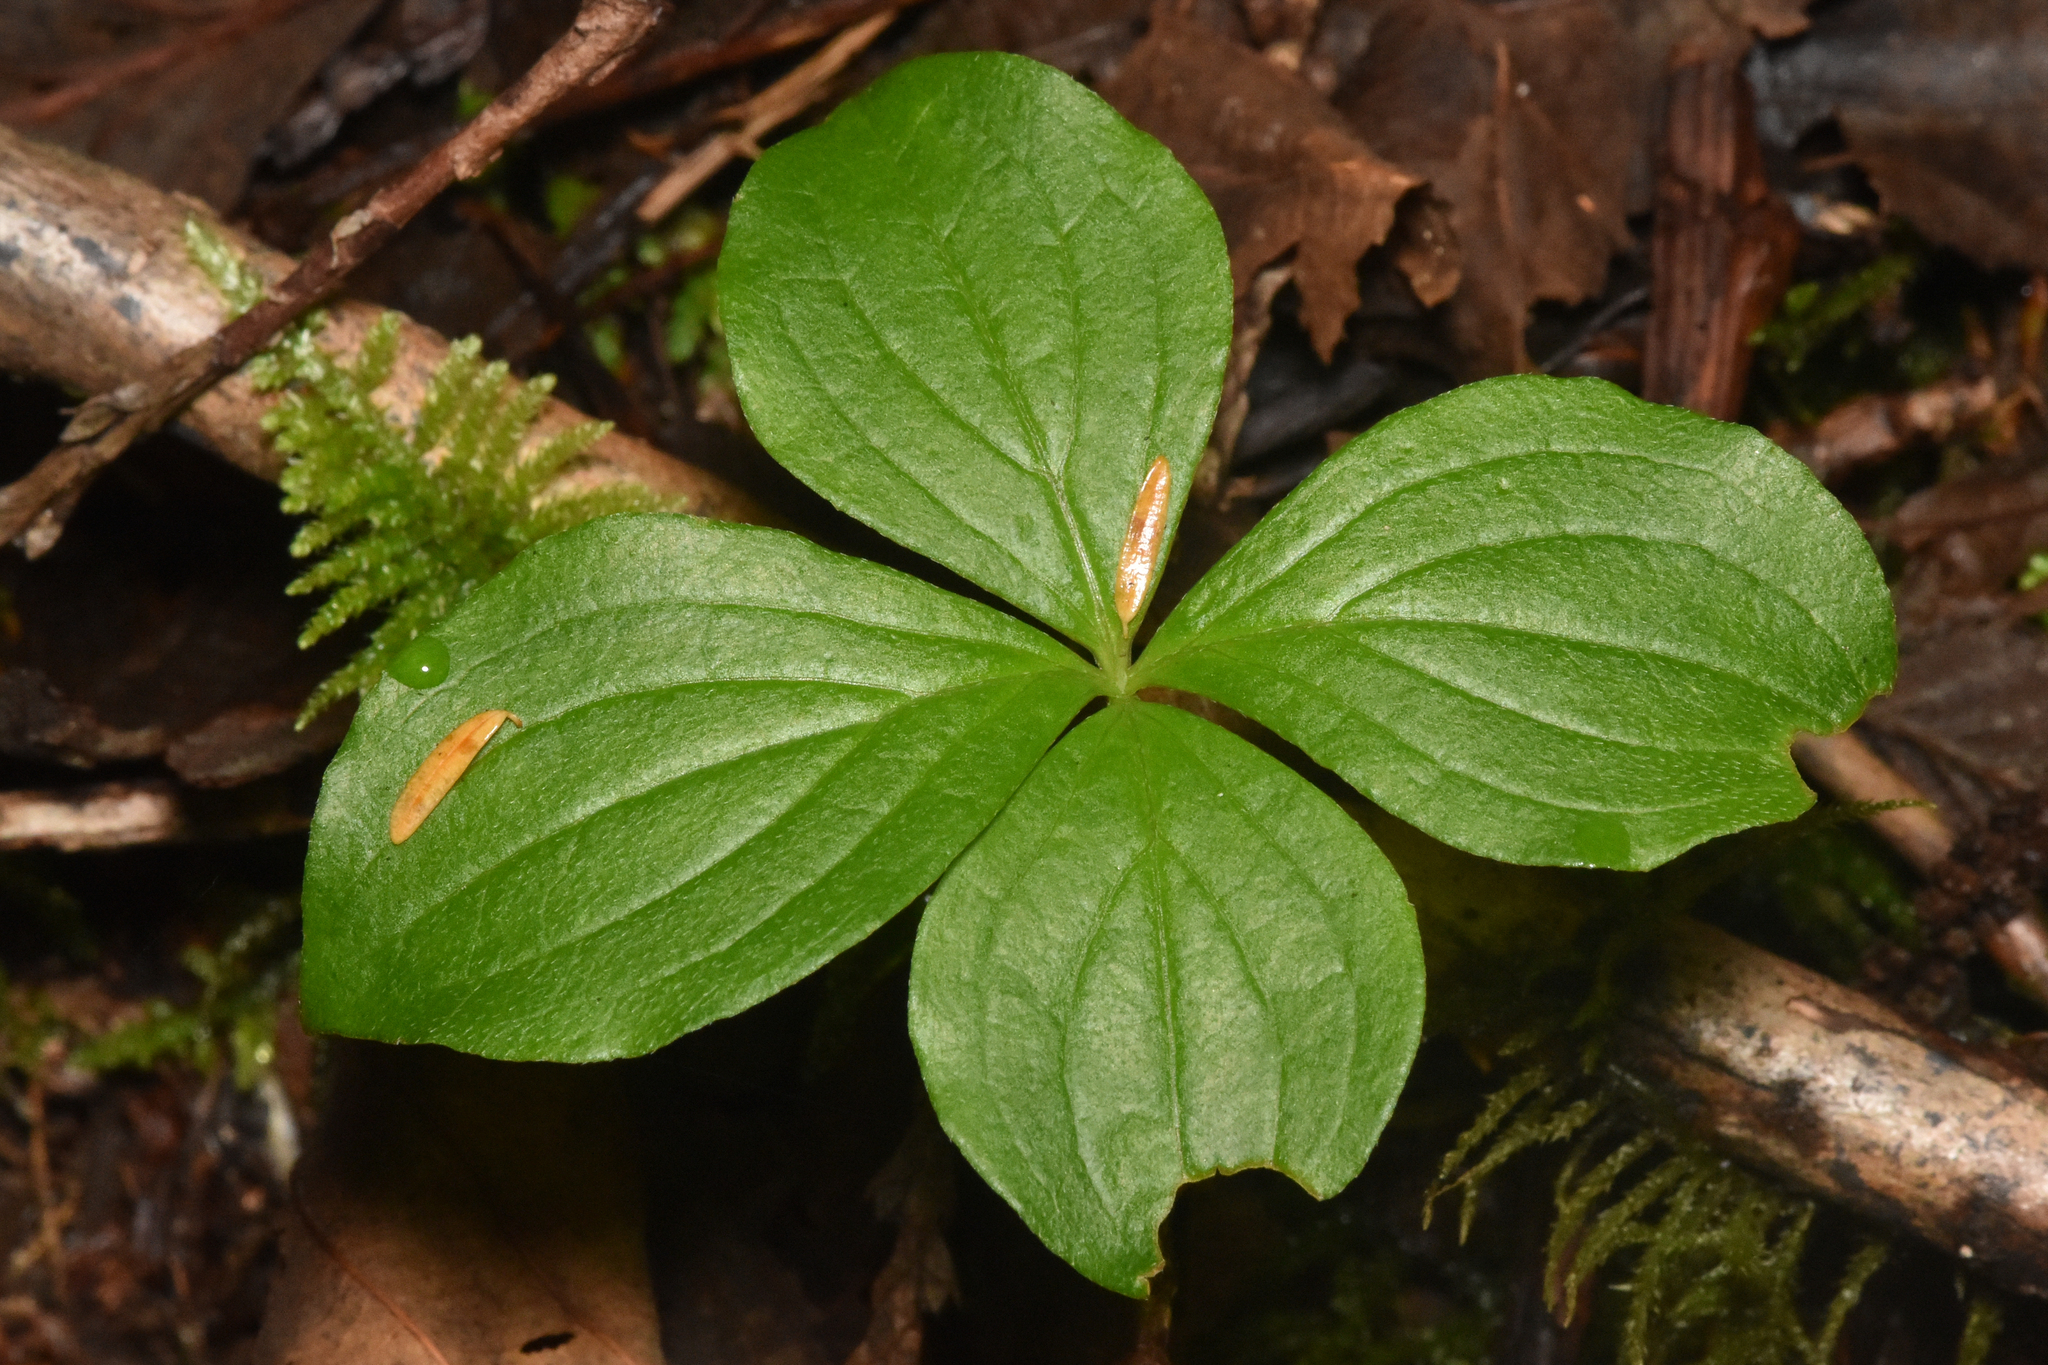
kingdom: Plantae
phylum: Tracheophyta
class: Magnoliopsida
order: Cornales
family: Cornaceae
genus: Cornus
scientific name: Cornus unalaschkensis
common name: Alaska bunchberry
